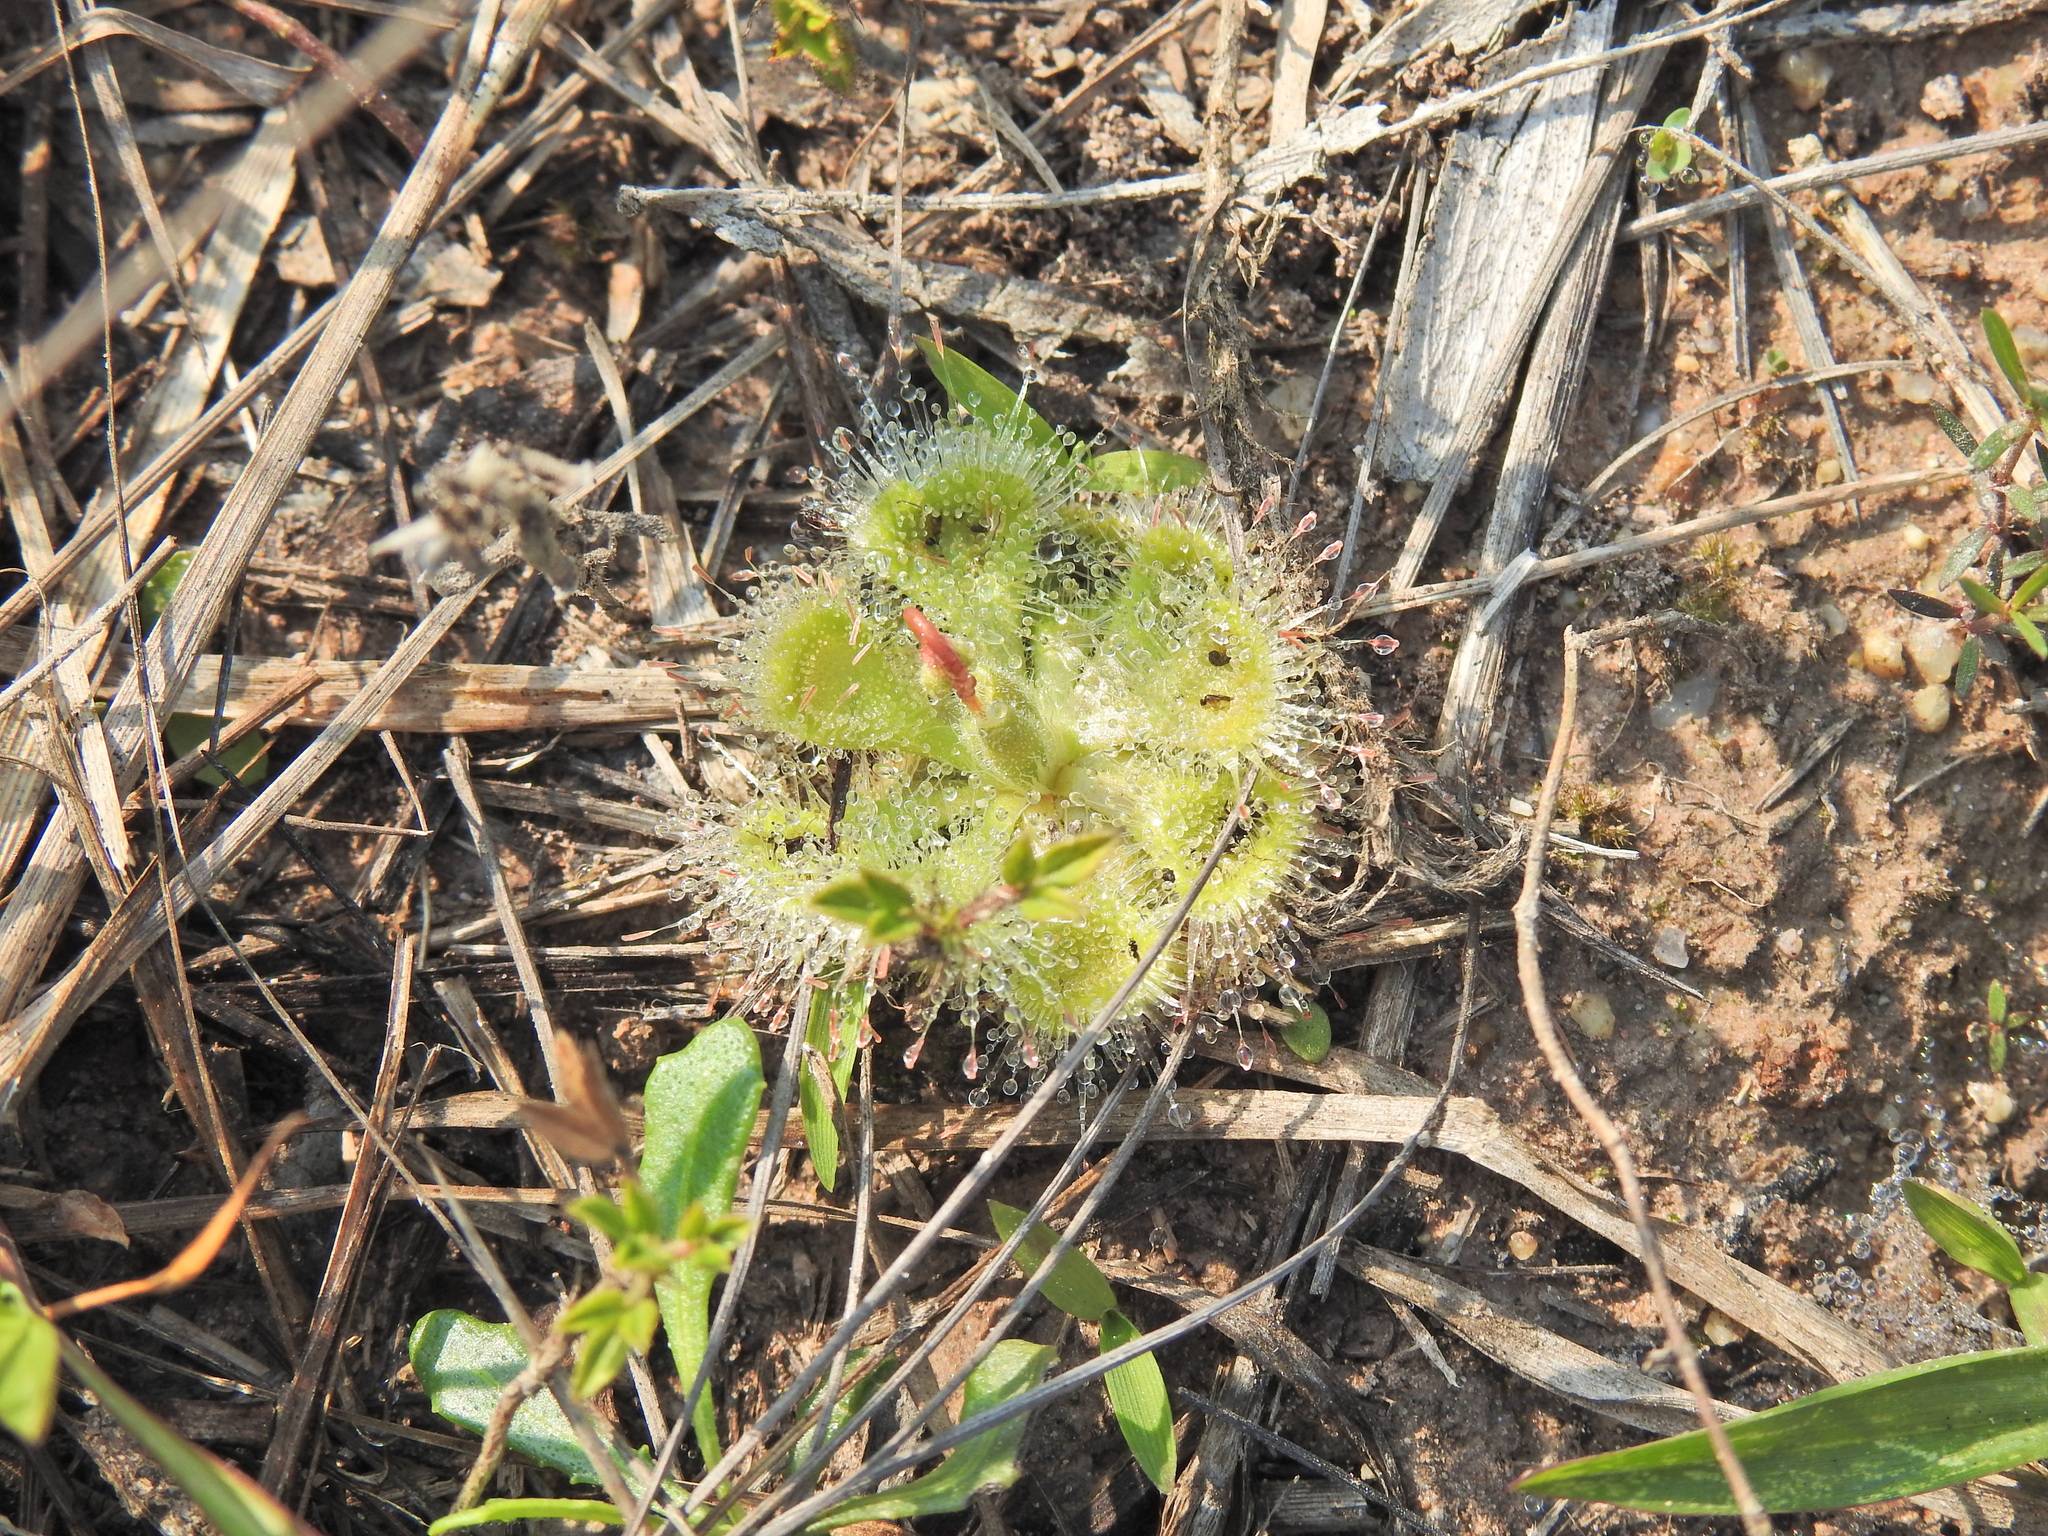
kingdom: Plantae
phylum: Tracheophyta
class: Magnoliopsida
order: Caryophyllales
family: Droseraceae
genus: Drosera
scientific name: Drosera spatulata
